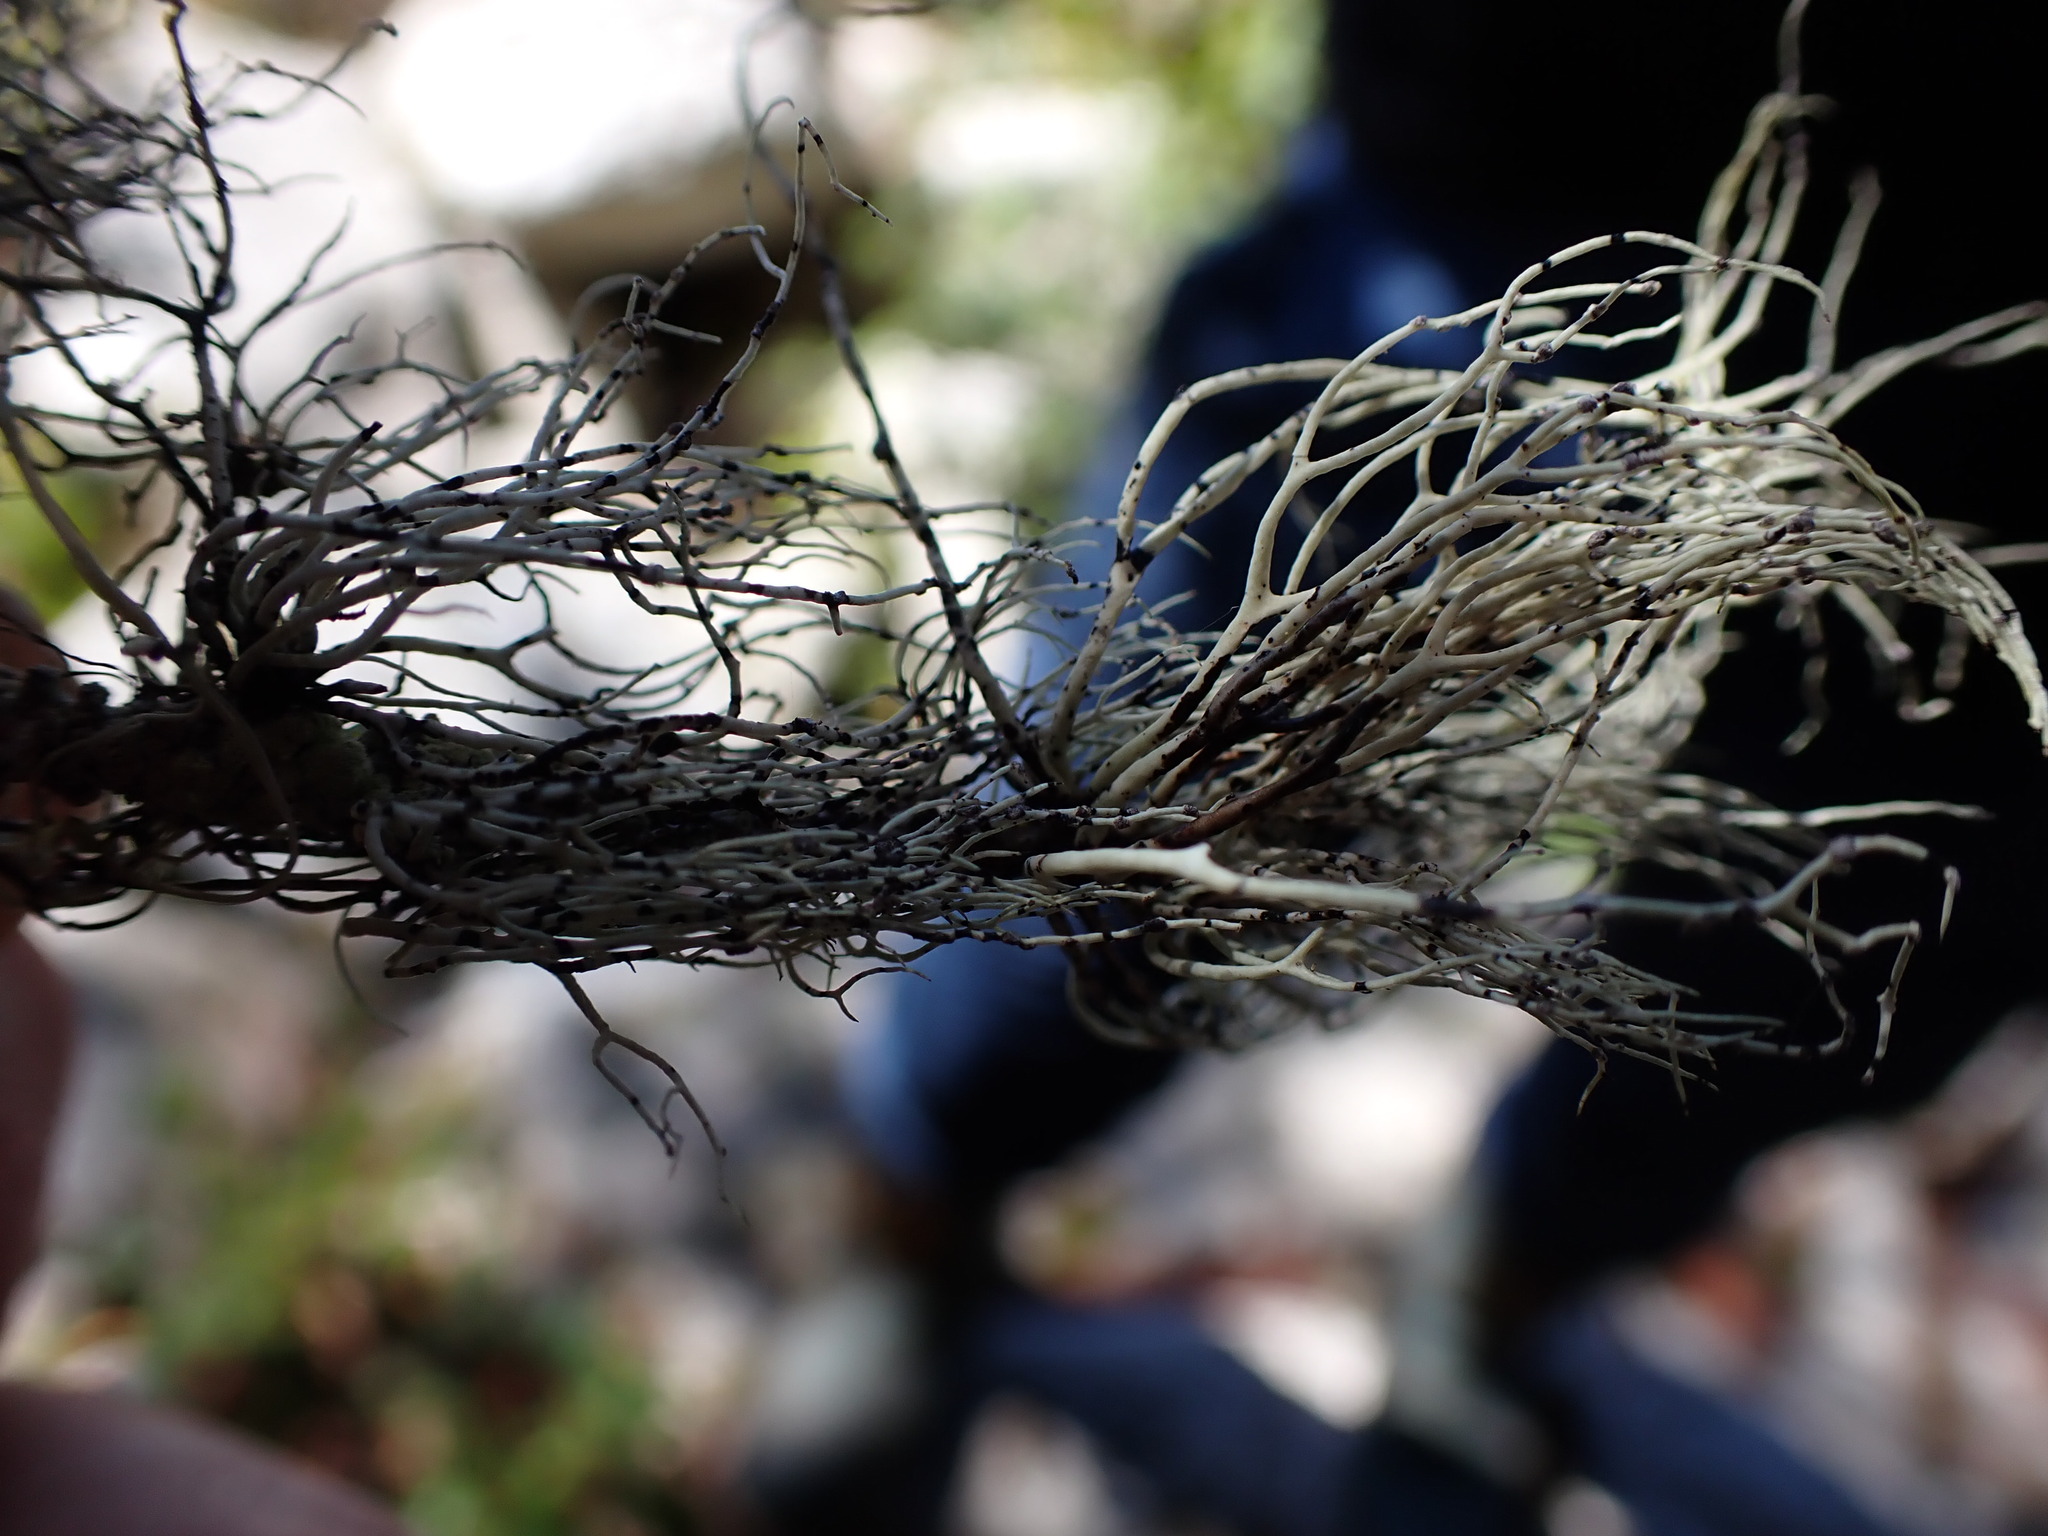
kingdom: Fungi
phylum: Ascomycota
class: Lecanoromycetes
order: Lecanorales
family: Ramalinaceae
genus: Niebla
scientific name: Niebla cephalota
